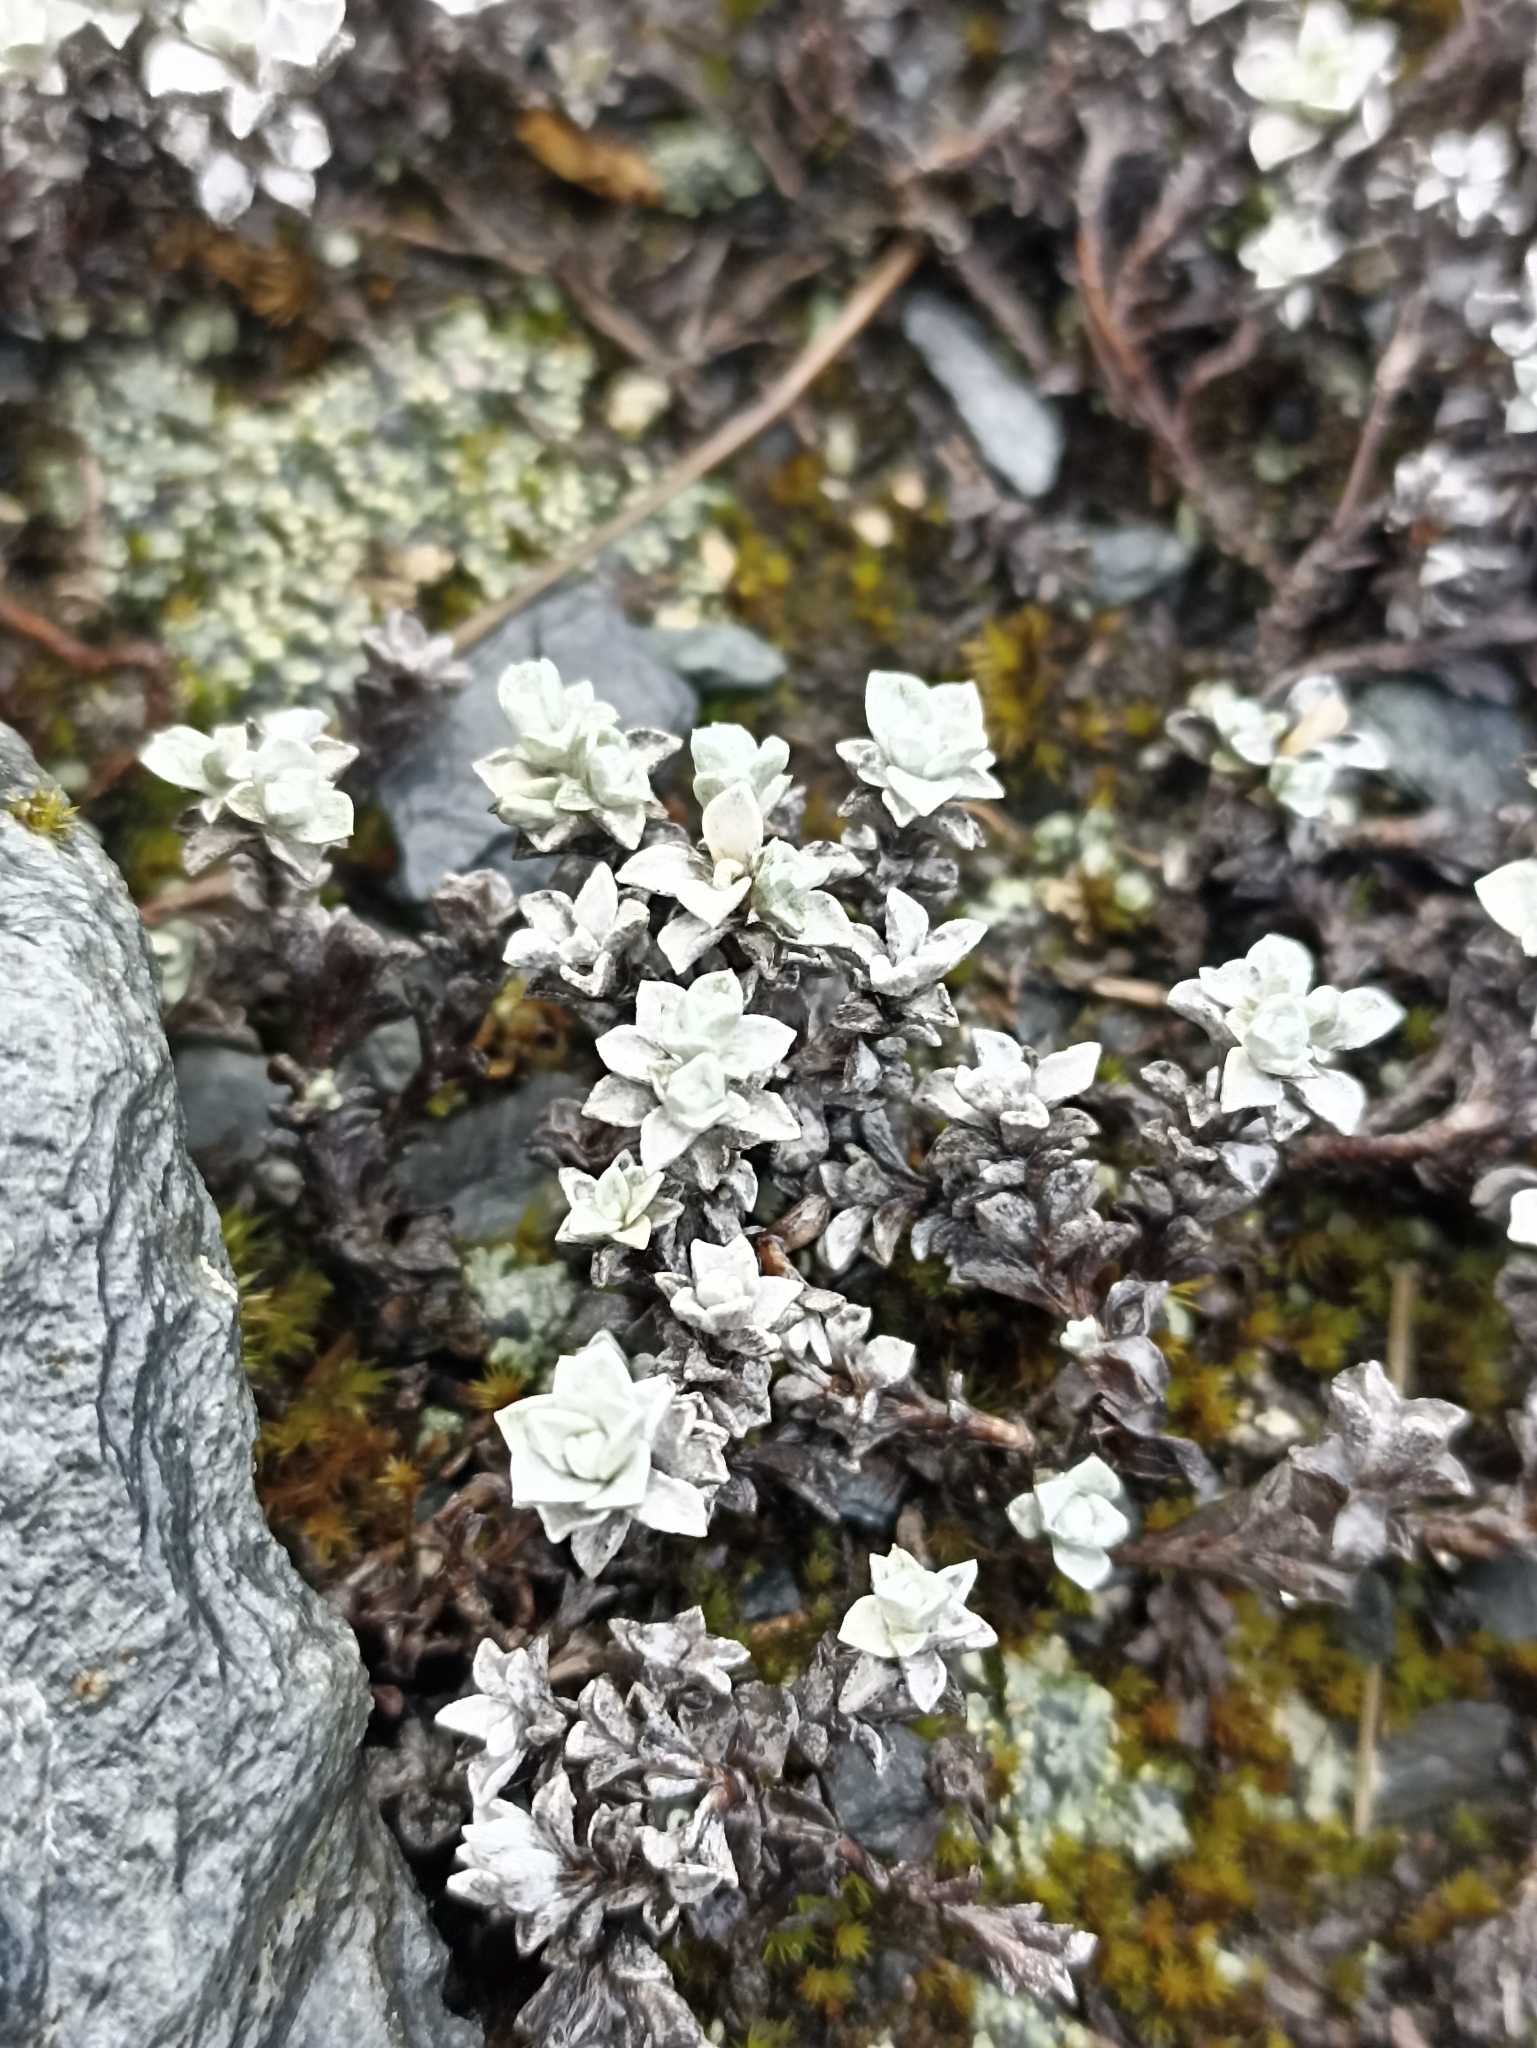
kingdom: Plantae
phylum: Tracheophyta
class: Magnoliopsida
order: Asterales
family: Asteraceae
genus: Leucogenes
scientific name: Leucogenes grandiceps
